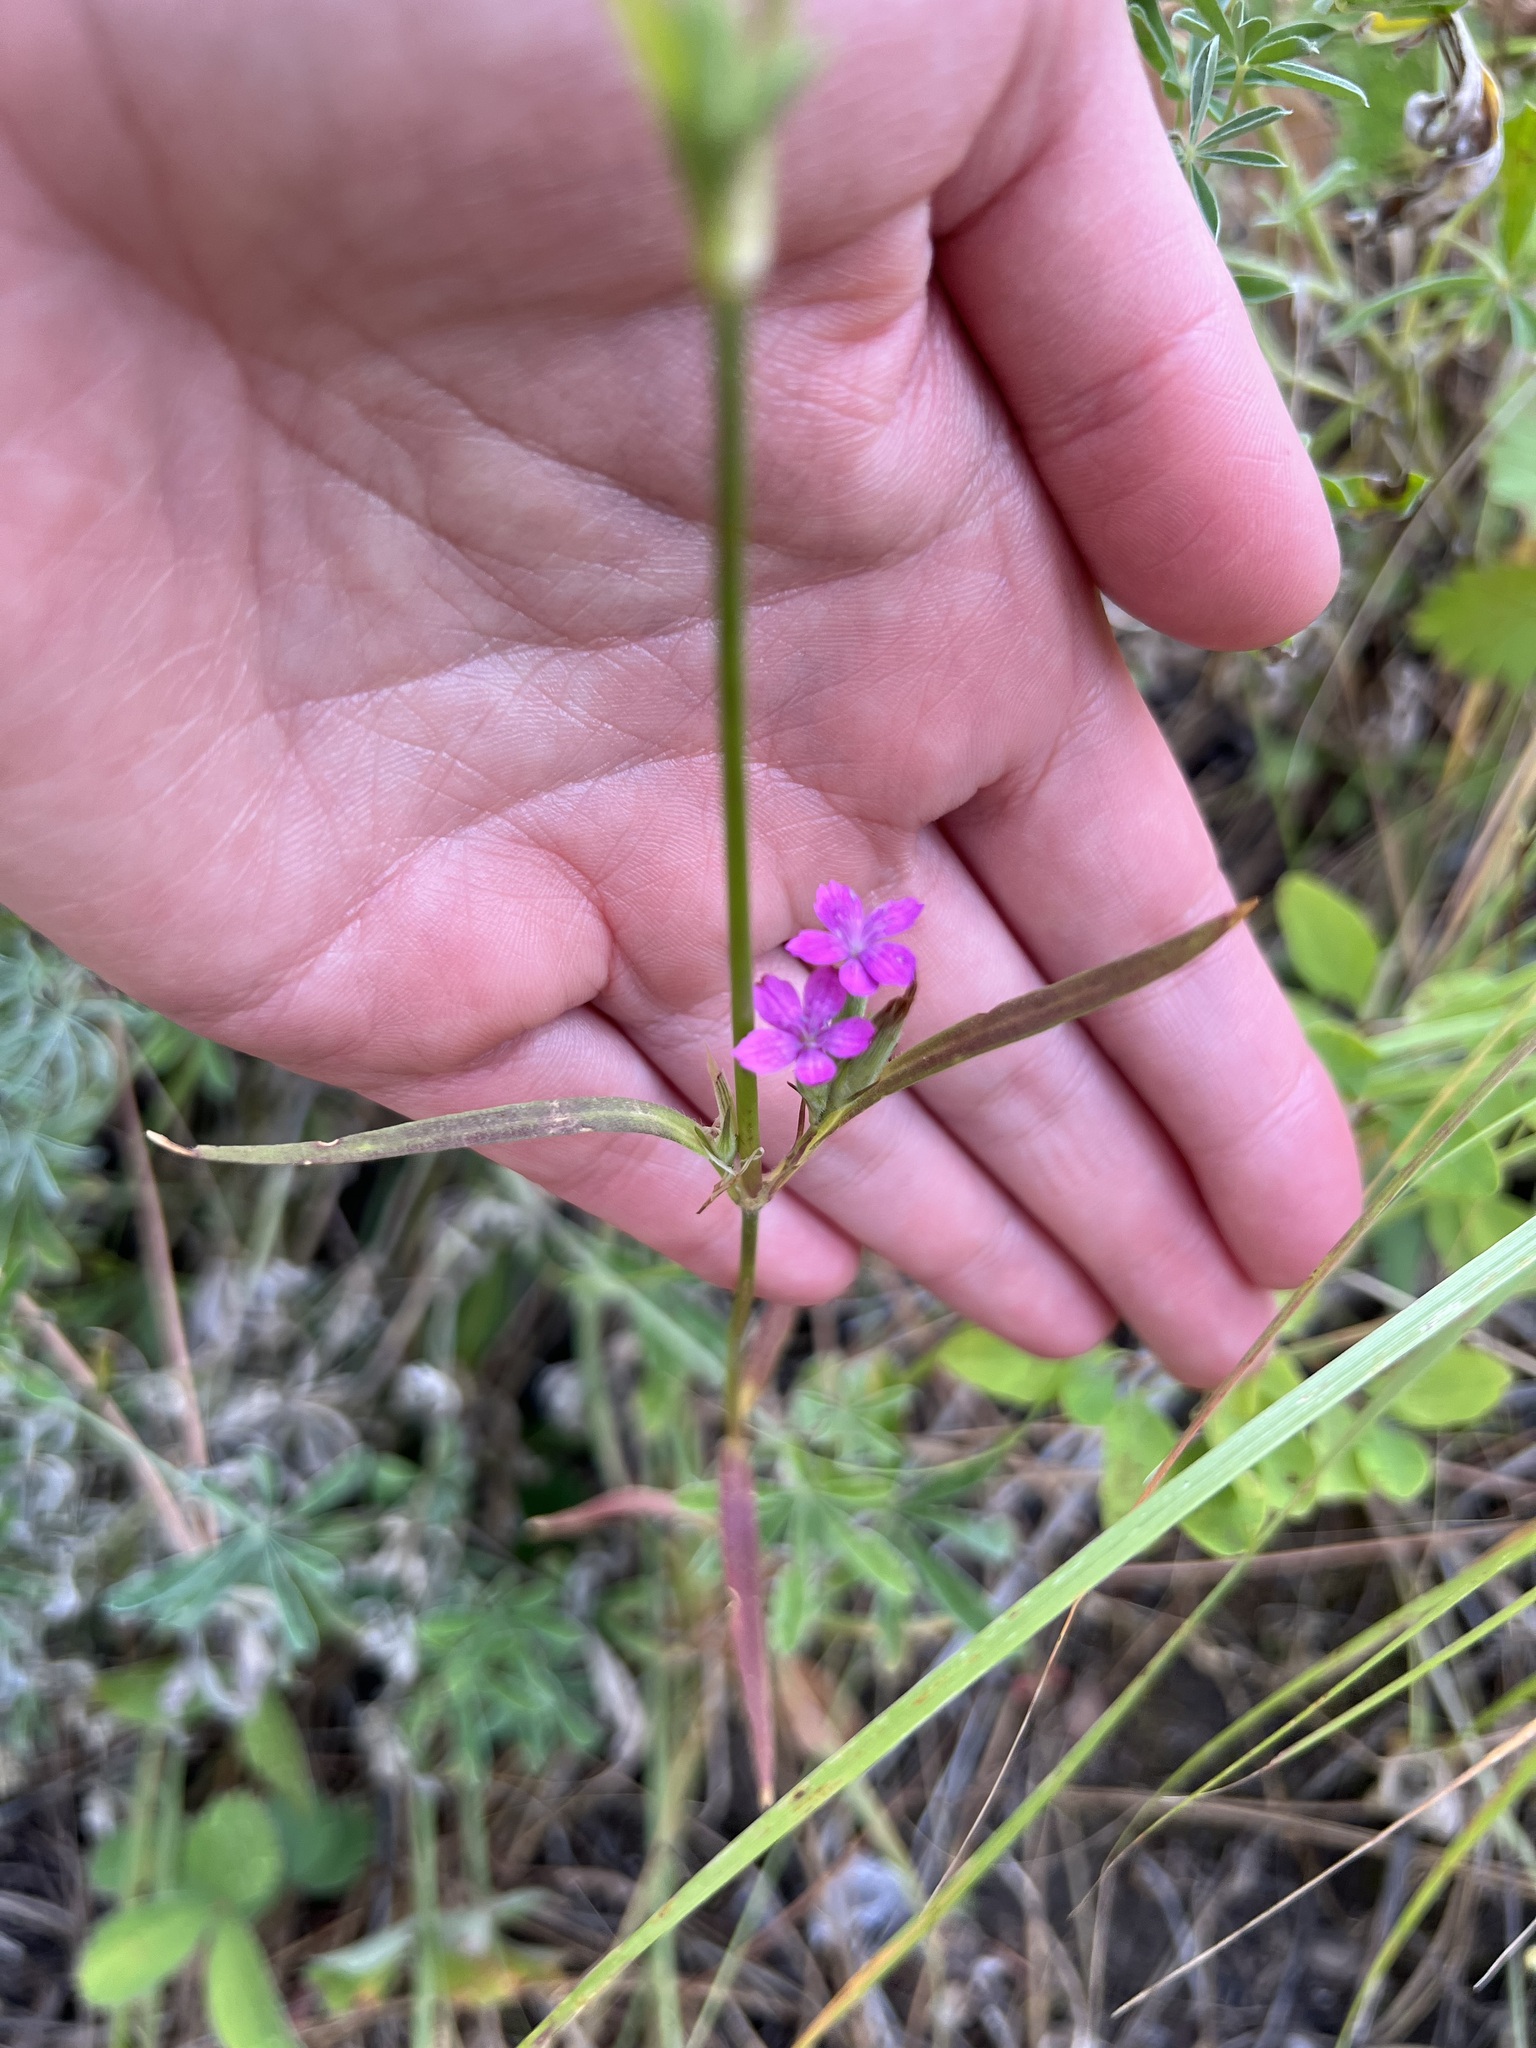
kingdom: Plantae
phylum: Tracheophyta
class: Magnoliopsida
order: Caryophyllales
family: Caryophyllaceae
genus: Dianthus
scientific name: Dianthus armeria
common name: Deptford pink
